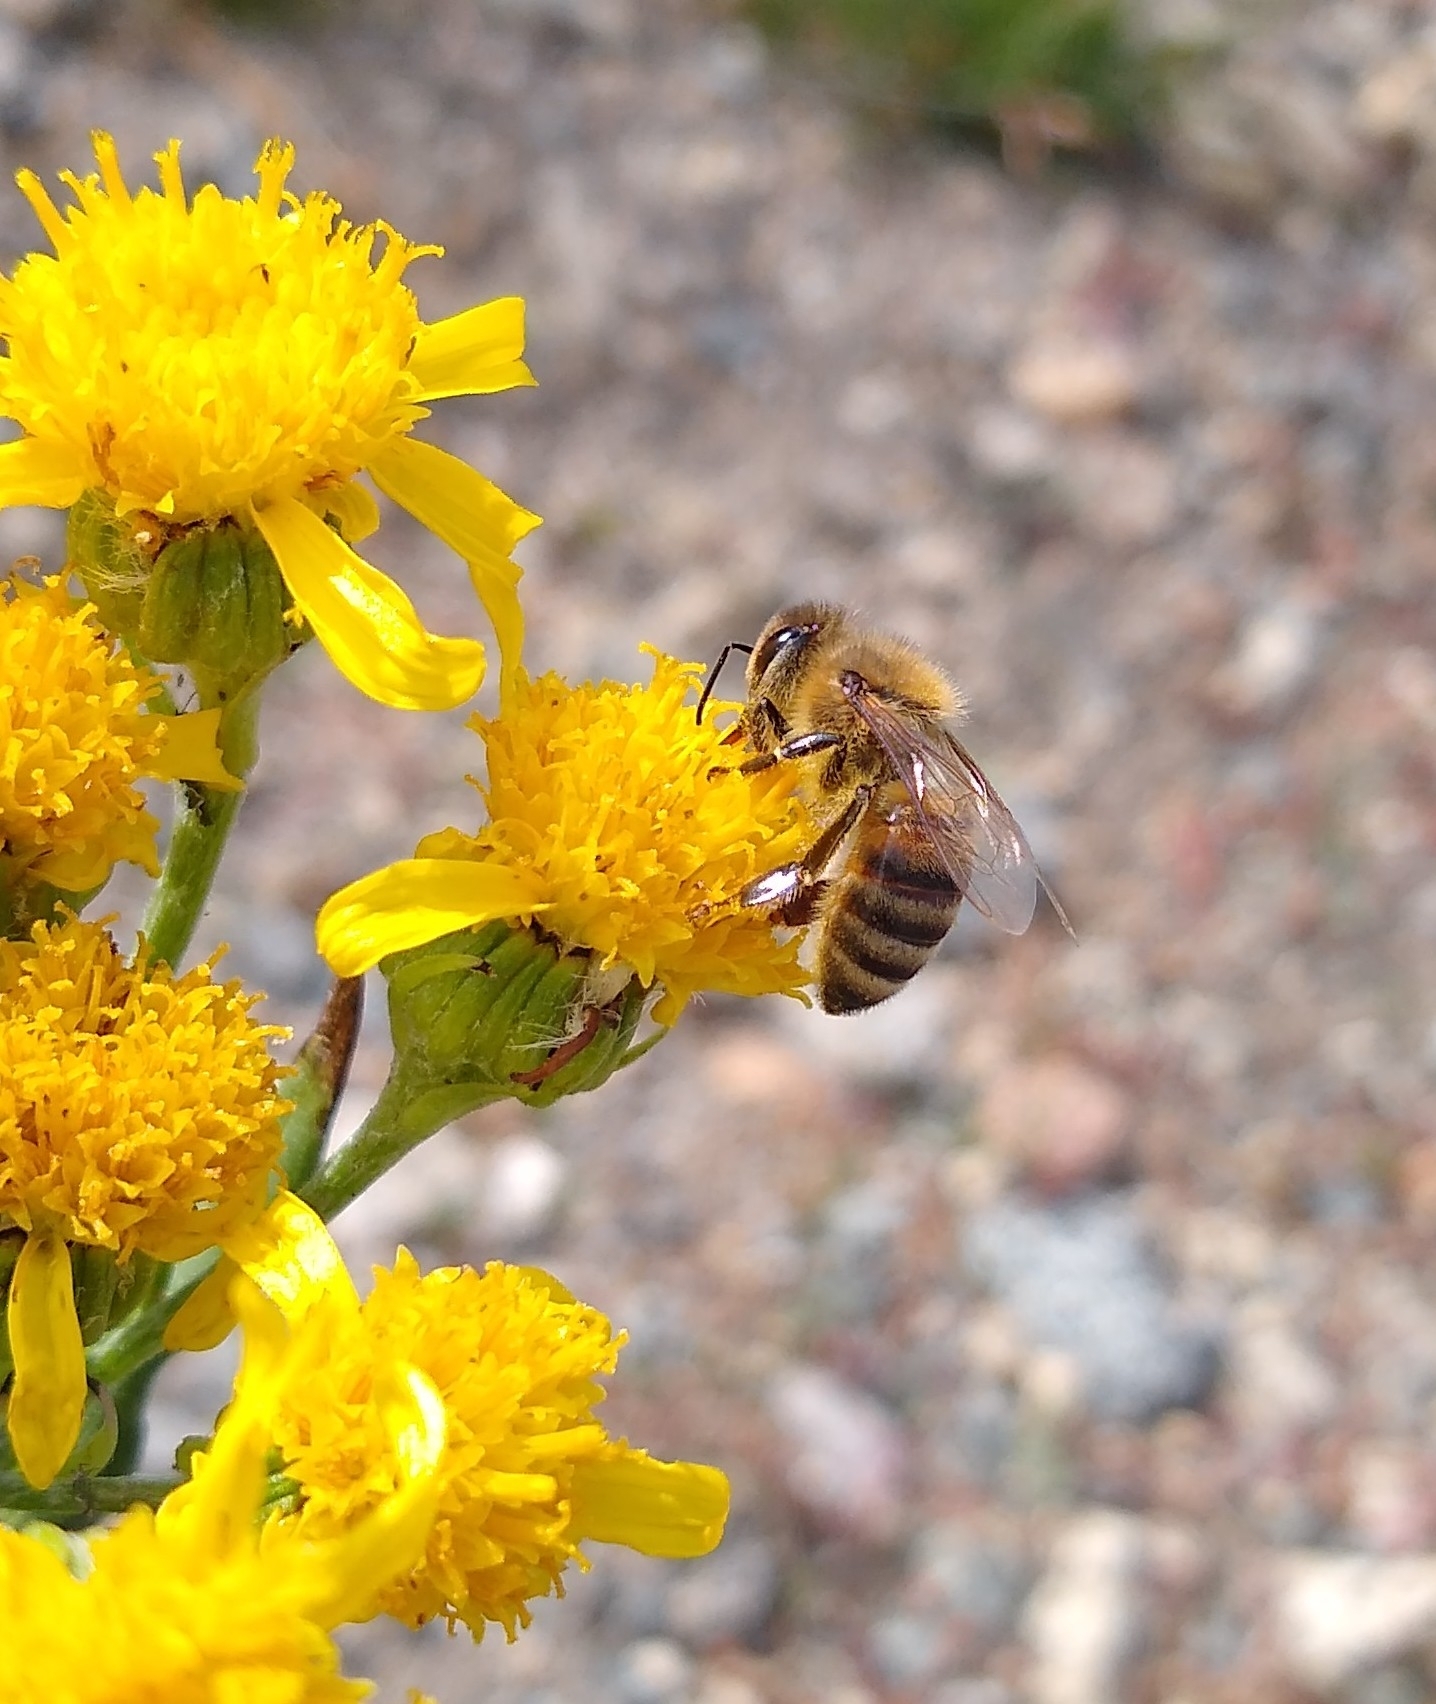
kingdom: Animalia
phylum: Arthropoda
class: Insecta
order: Hymenoptera
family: Apidae
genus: Apis
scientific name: Apis mellifera
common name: Honey bee
